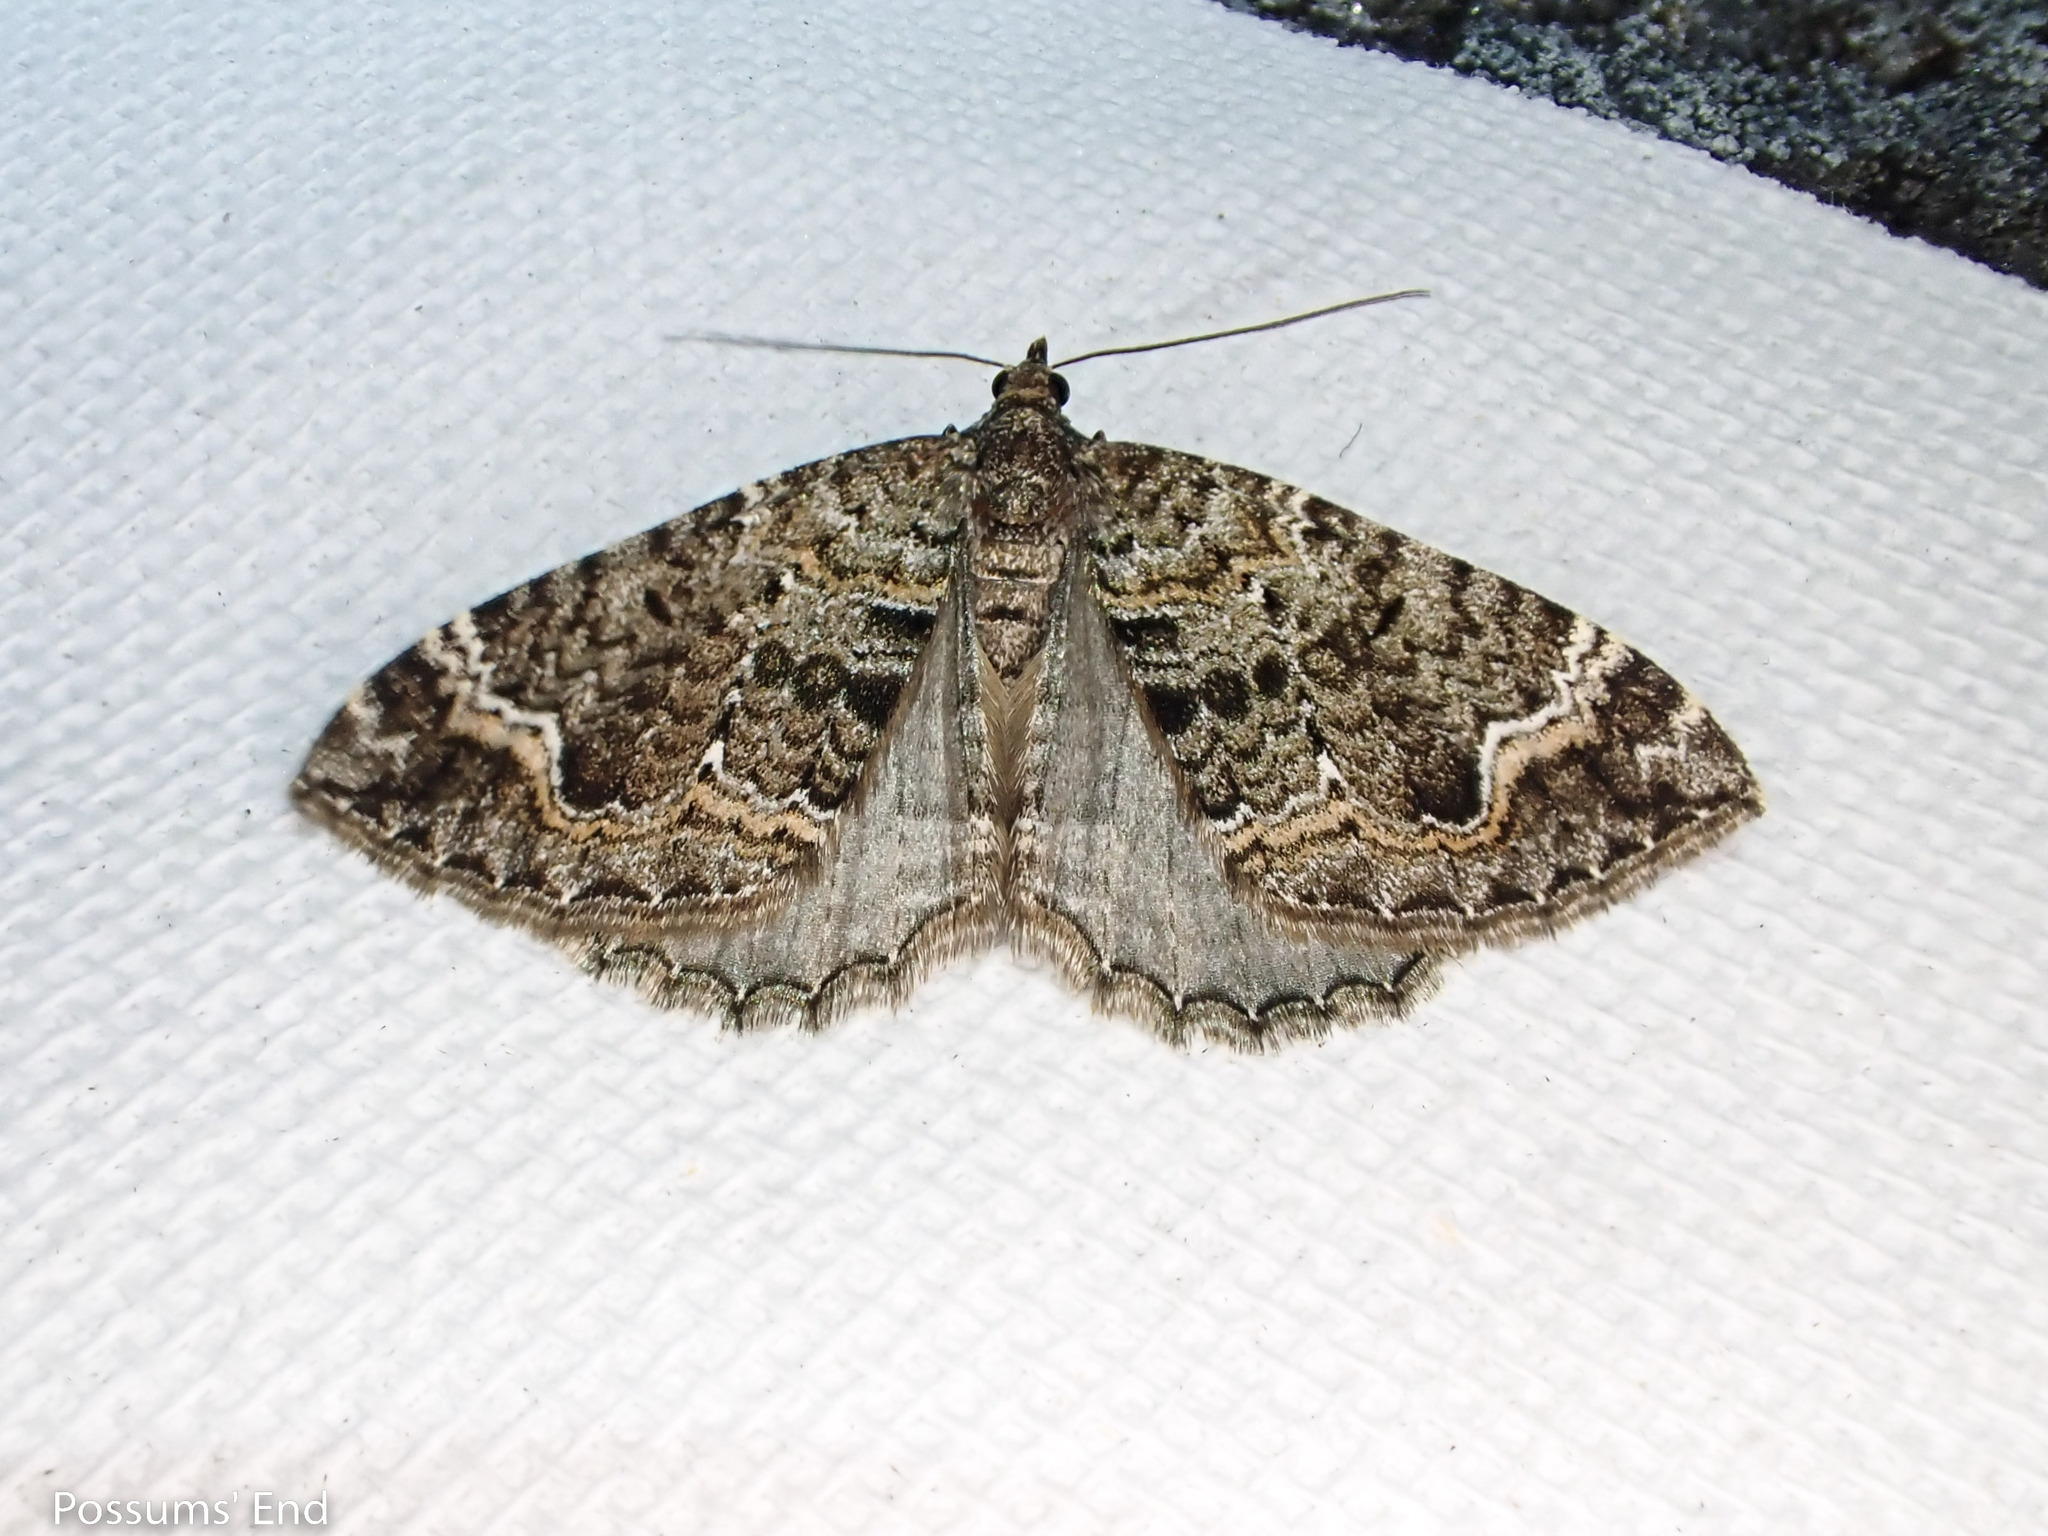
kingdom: Animalia
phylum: Arthropoda
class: Insecta
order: Lepidoptera
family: Geometridae
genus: Hydriomena
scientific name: Hydriomena hemizona
